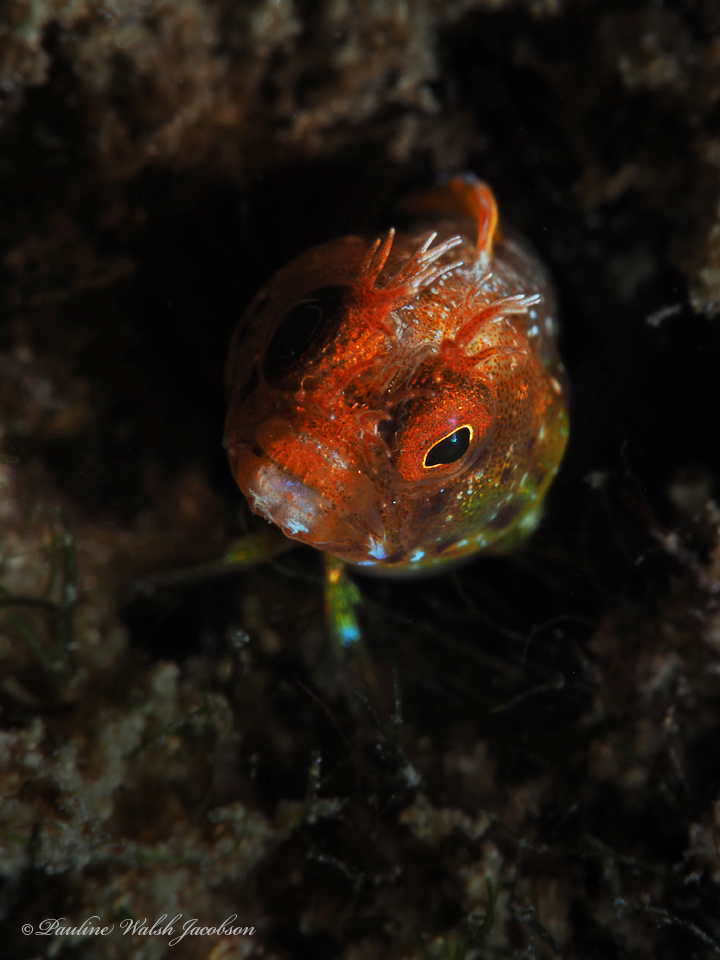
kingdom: Animalia
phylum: Chordata
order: Perciformes
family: Chaenopsidae
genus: Acanthemblemaria
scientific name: Acanthemblemaria aspera
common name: Roughhead blenny
